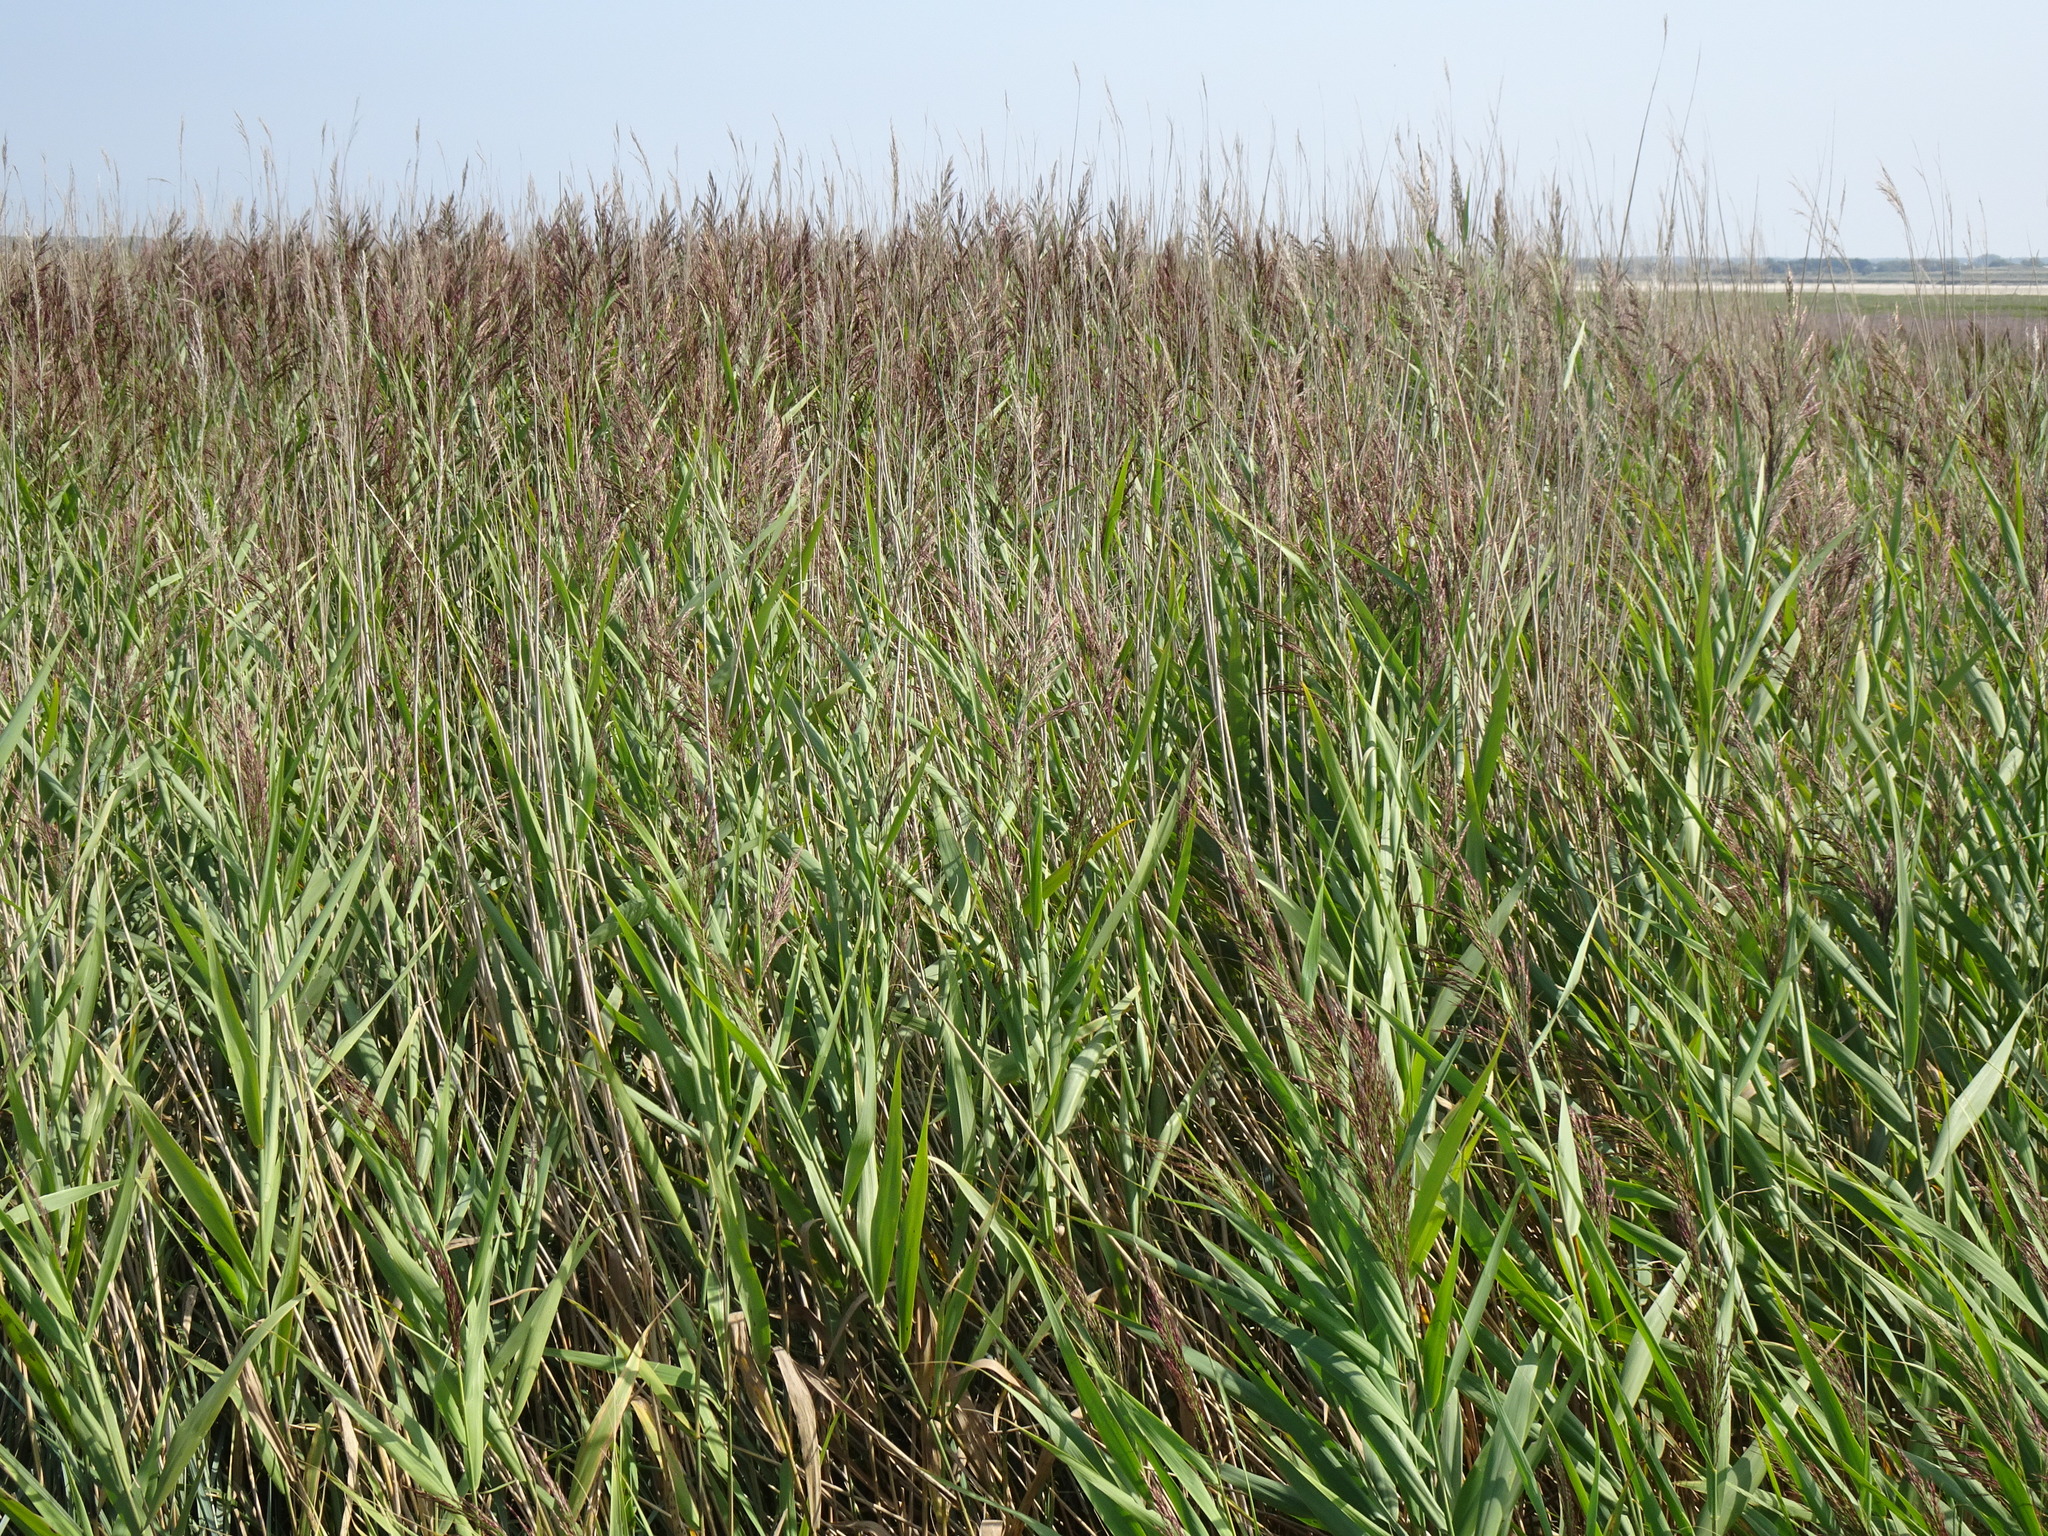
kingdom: Plantae
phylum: Tracheophyta
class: Liliopsida
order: Poales
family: Poaceae
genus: Phragmites
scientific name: Phragmites australis
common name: Common reed
